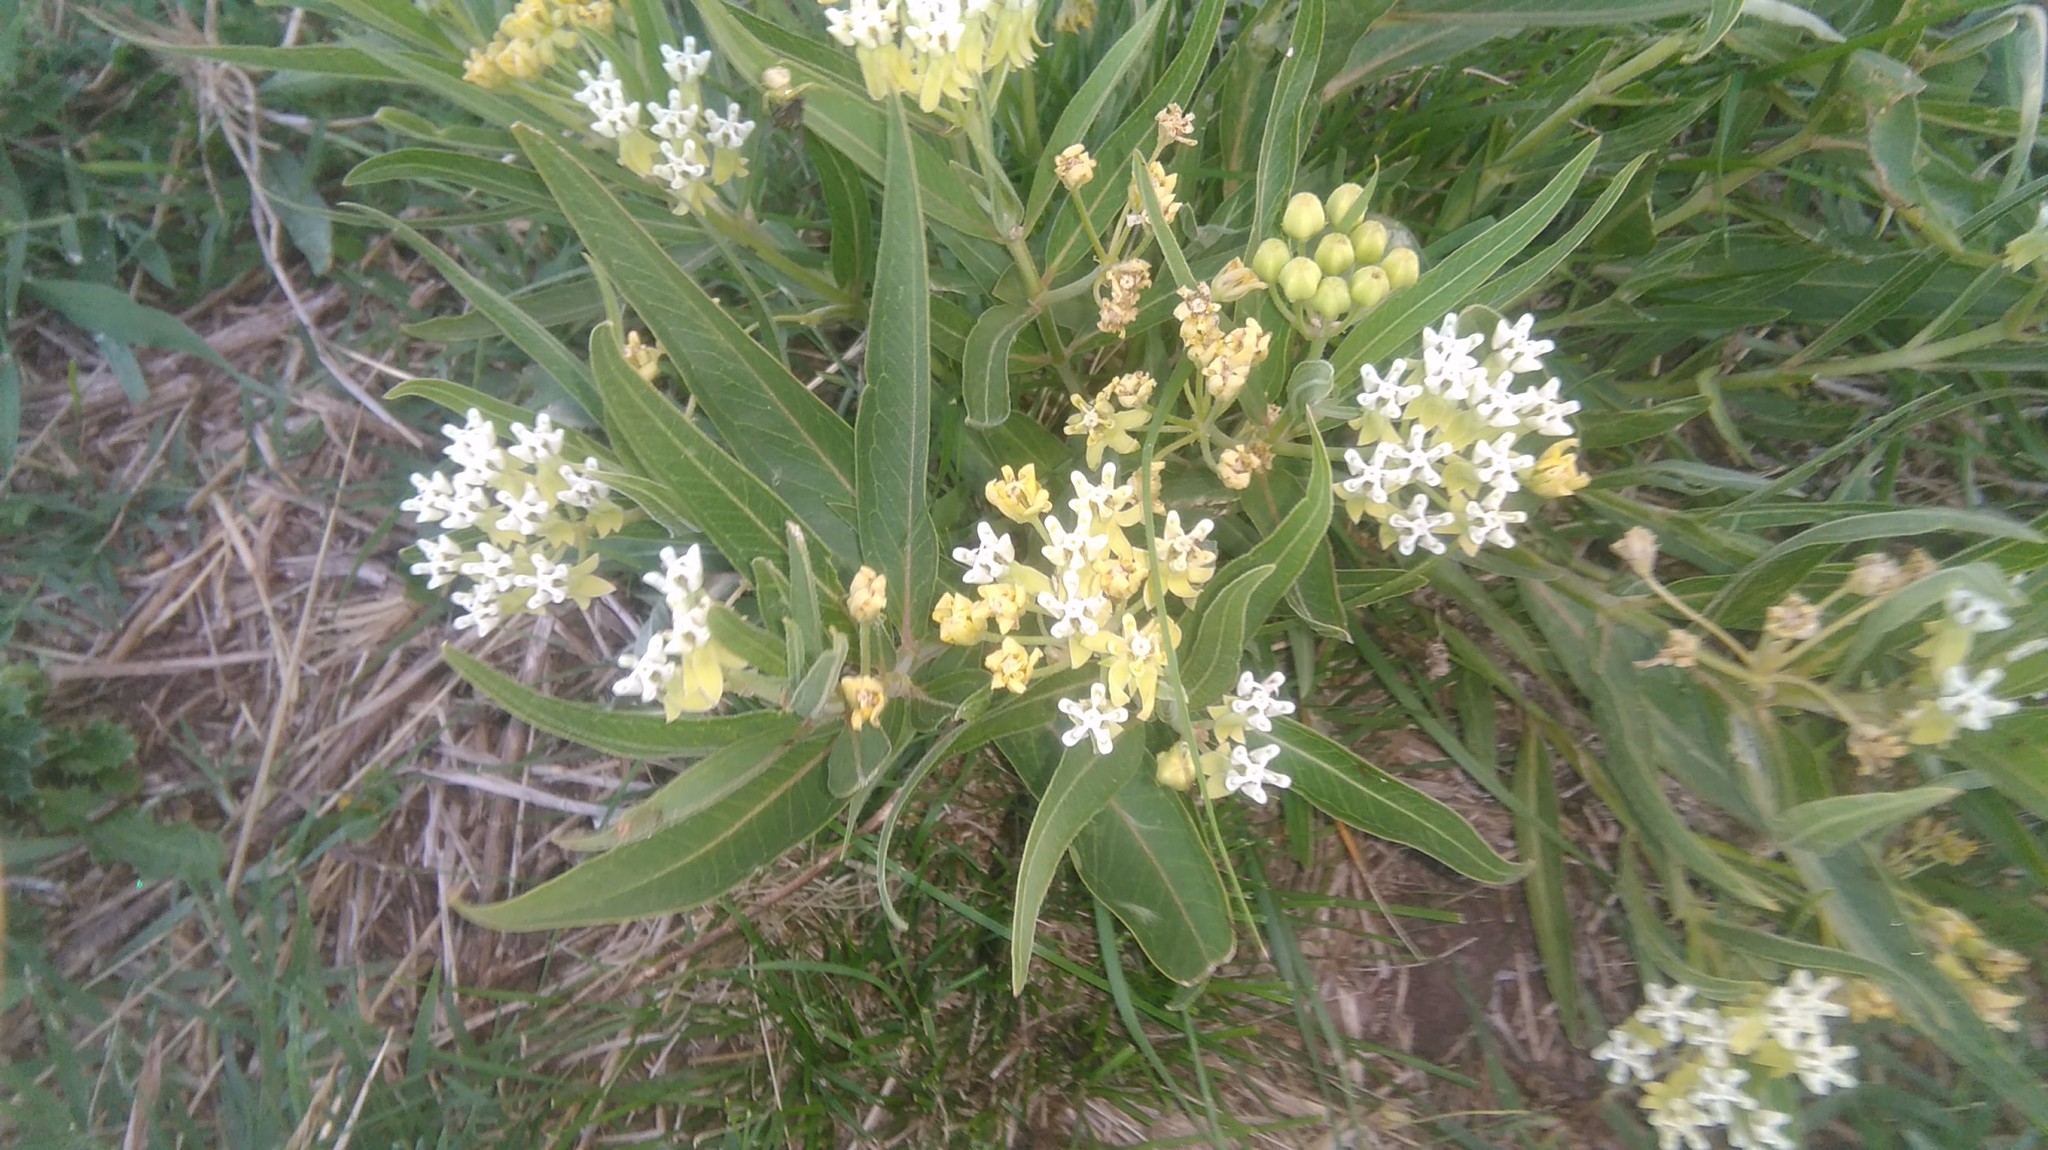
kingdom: Plantae
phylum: Tracheophyta
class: Magnoliopsida
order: Gentianales
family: Apocynaceae
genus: Asclepias
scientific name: Asclepias mellodora
